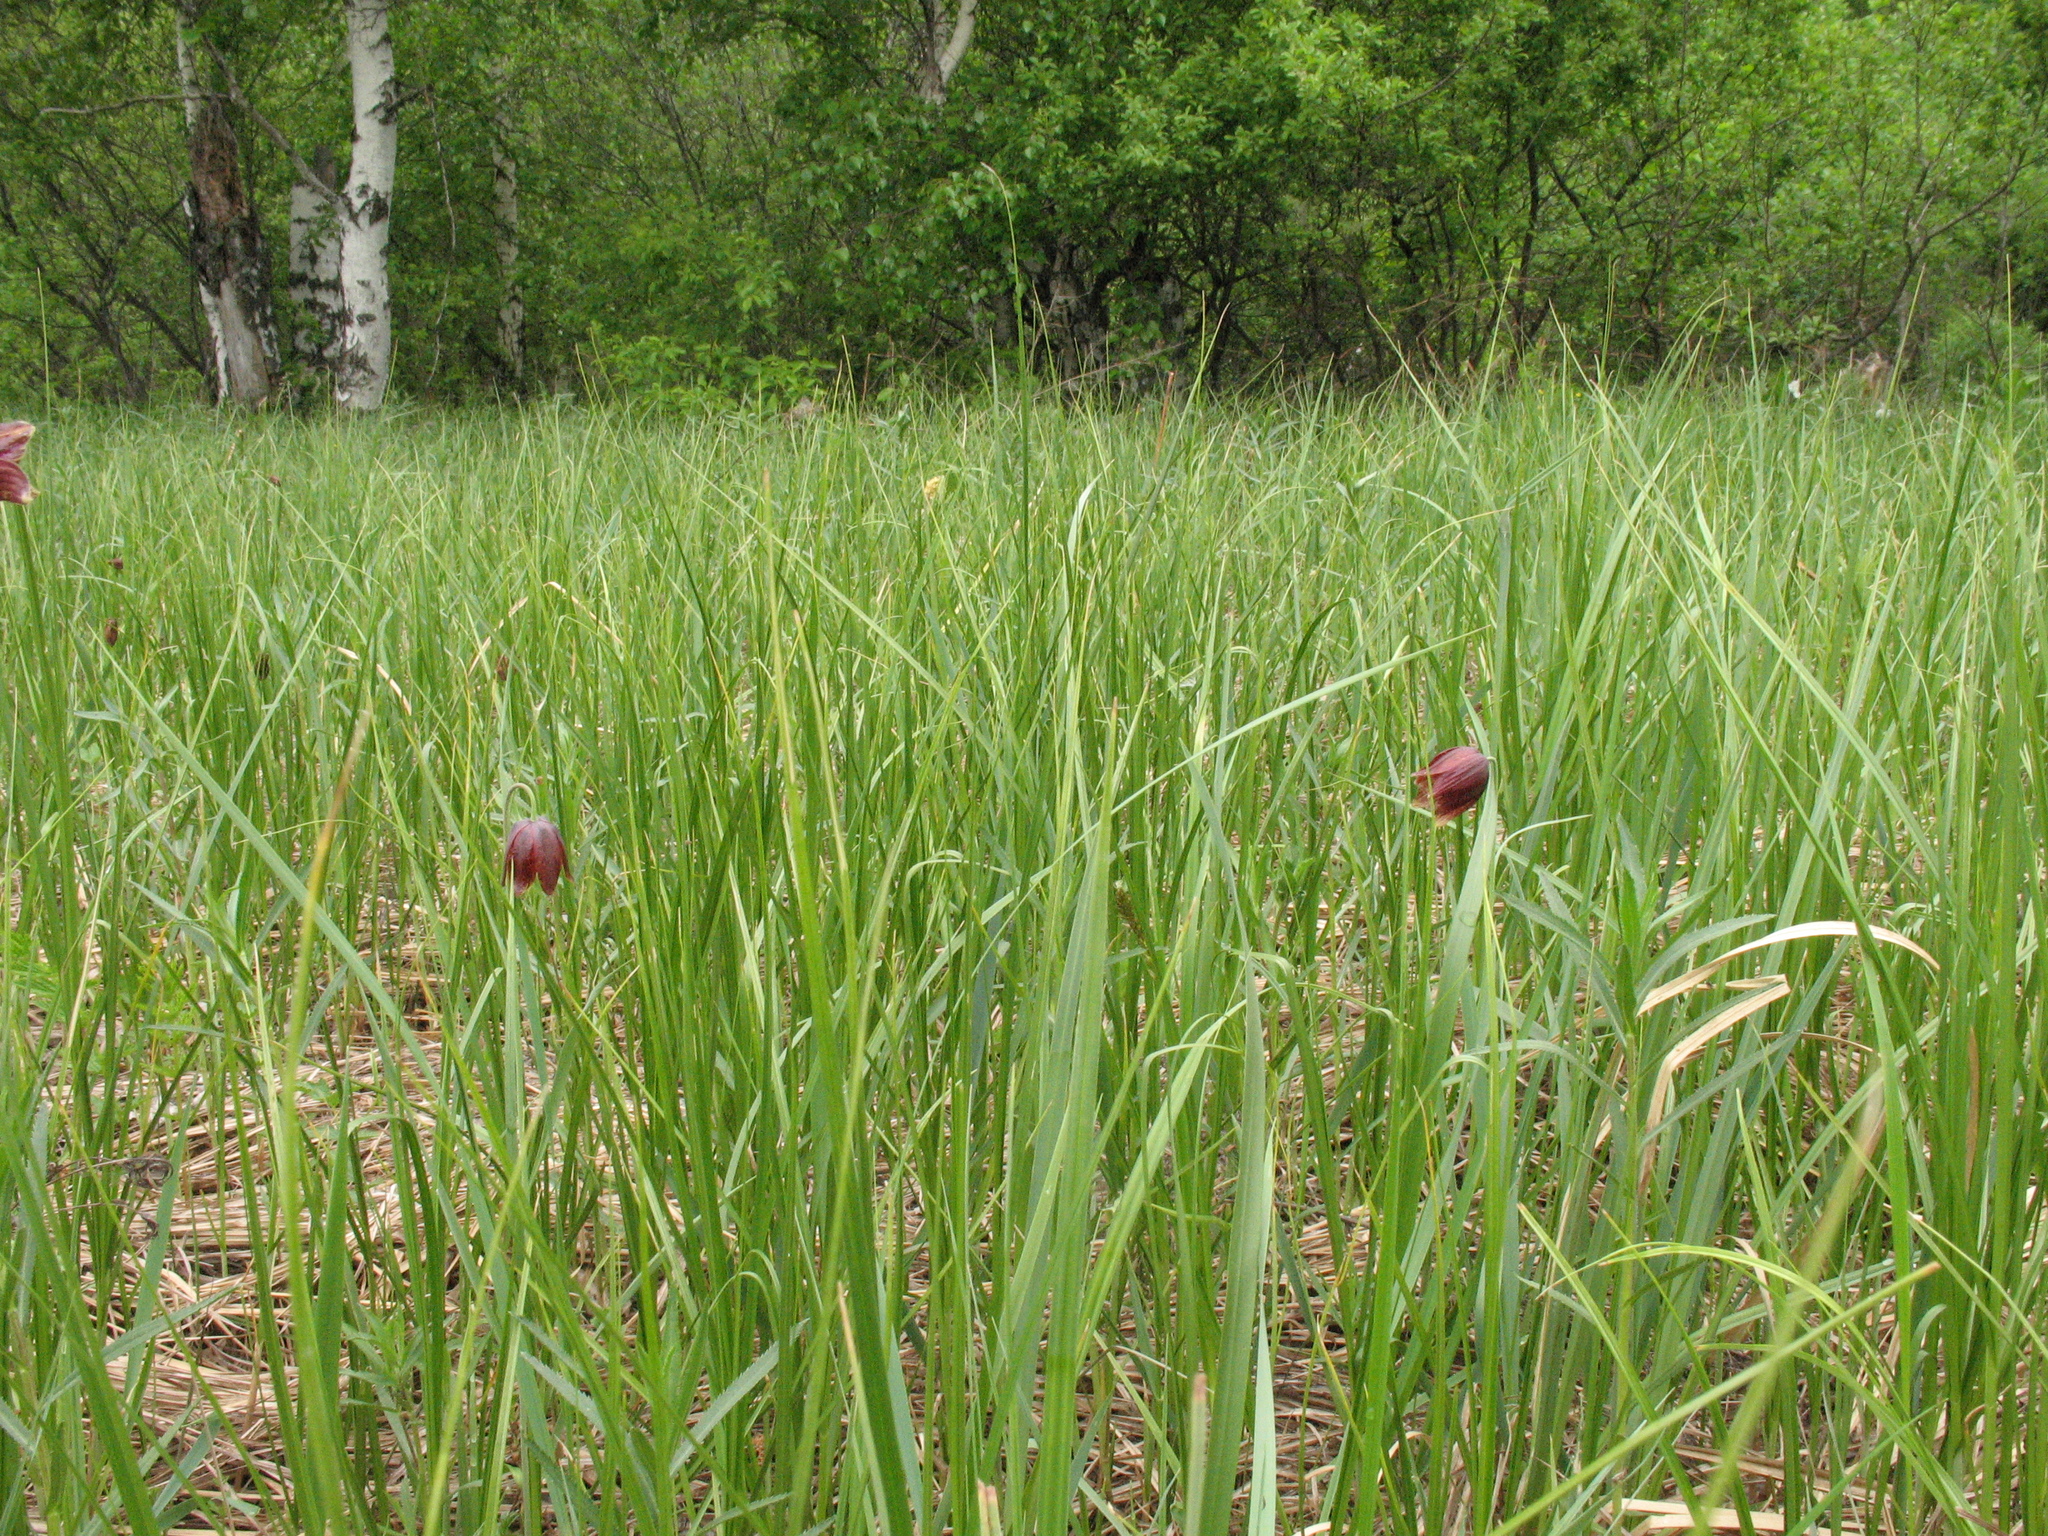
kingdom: Plantae
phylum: Tracheophyta
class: Liliopsida
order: Liliales
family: Liliaceae
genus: Fritillaria
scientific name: Fritillaria meleagroides
